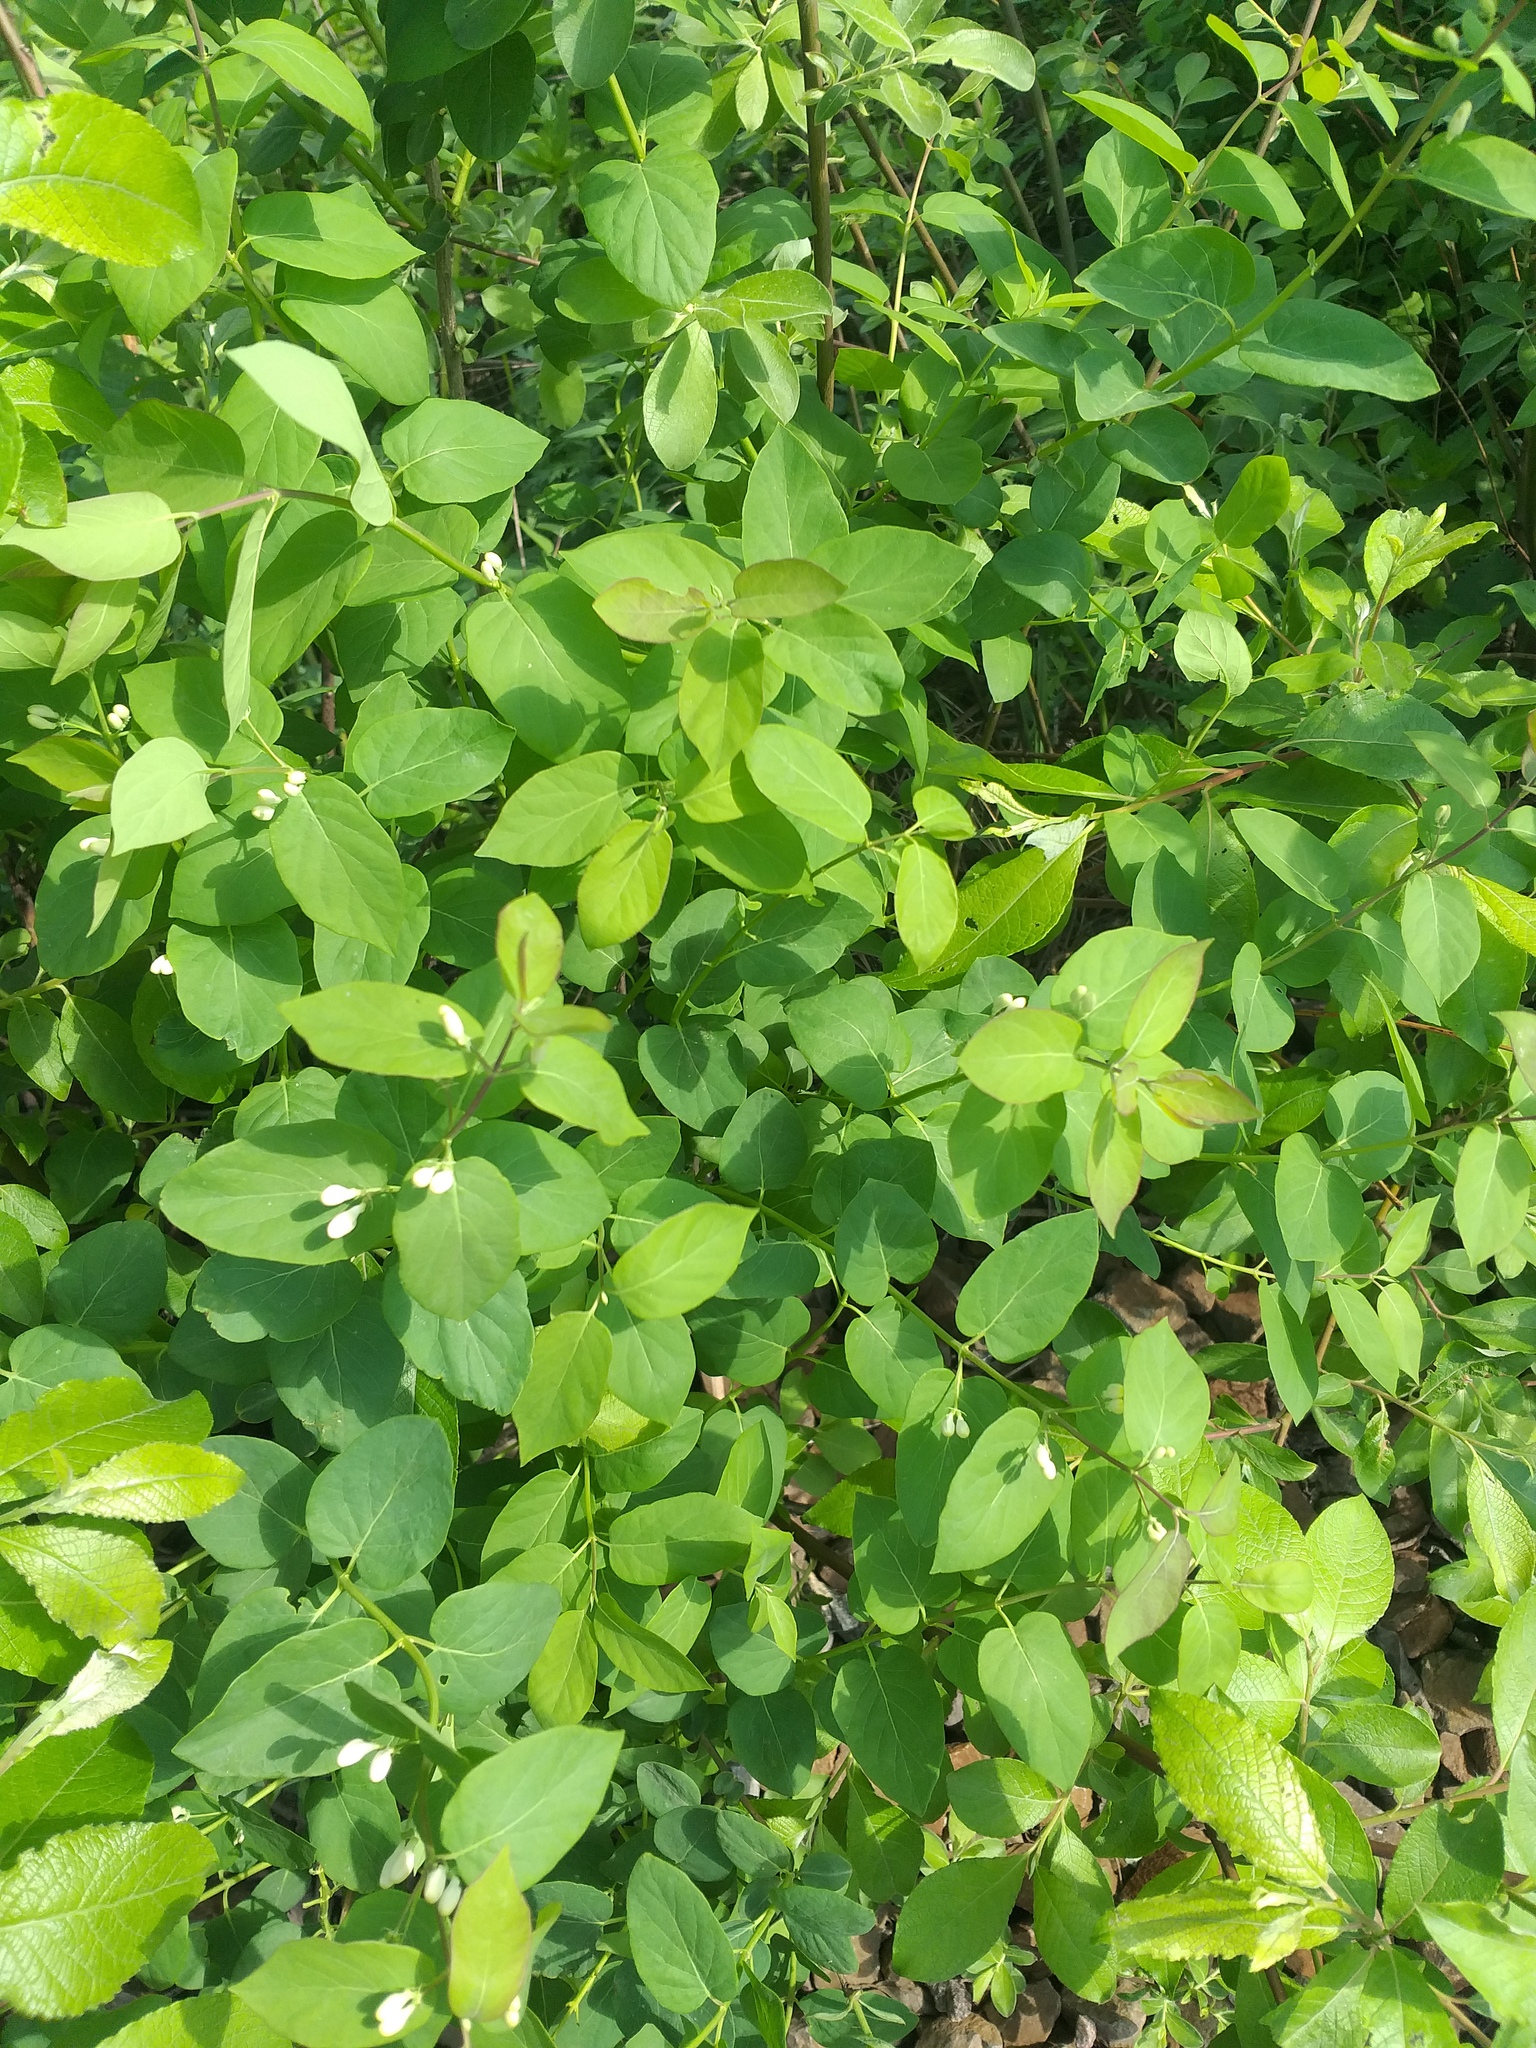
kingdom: Plantae
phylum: Tracheophyta
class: Magnoliopsida
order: Dipsacales
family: Caprifoliaceae
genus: Lonicera
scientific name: Lonicera tatarica
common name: Tatarian honeysuckle
